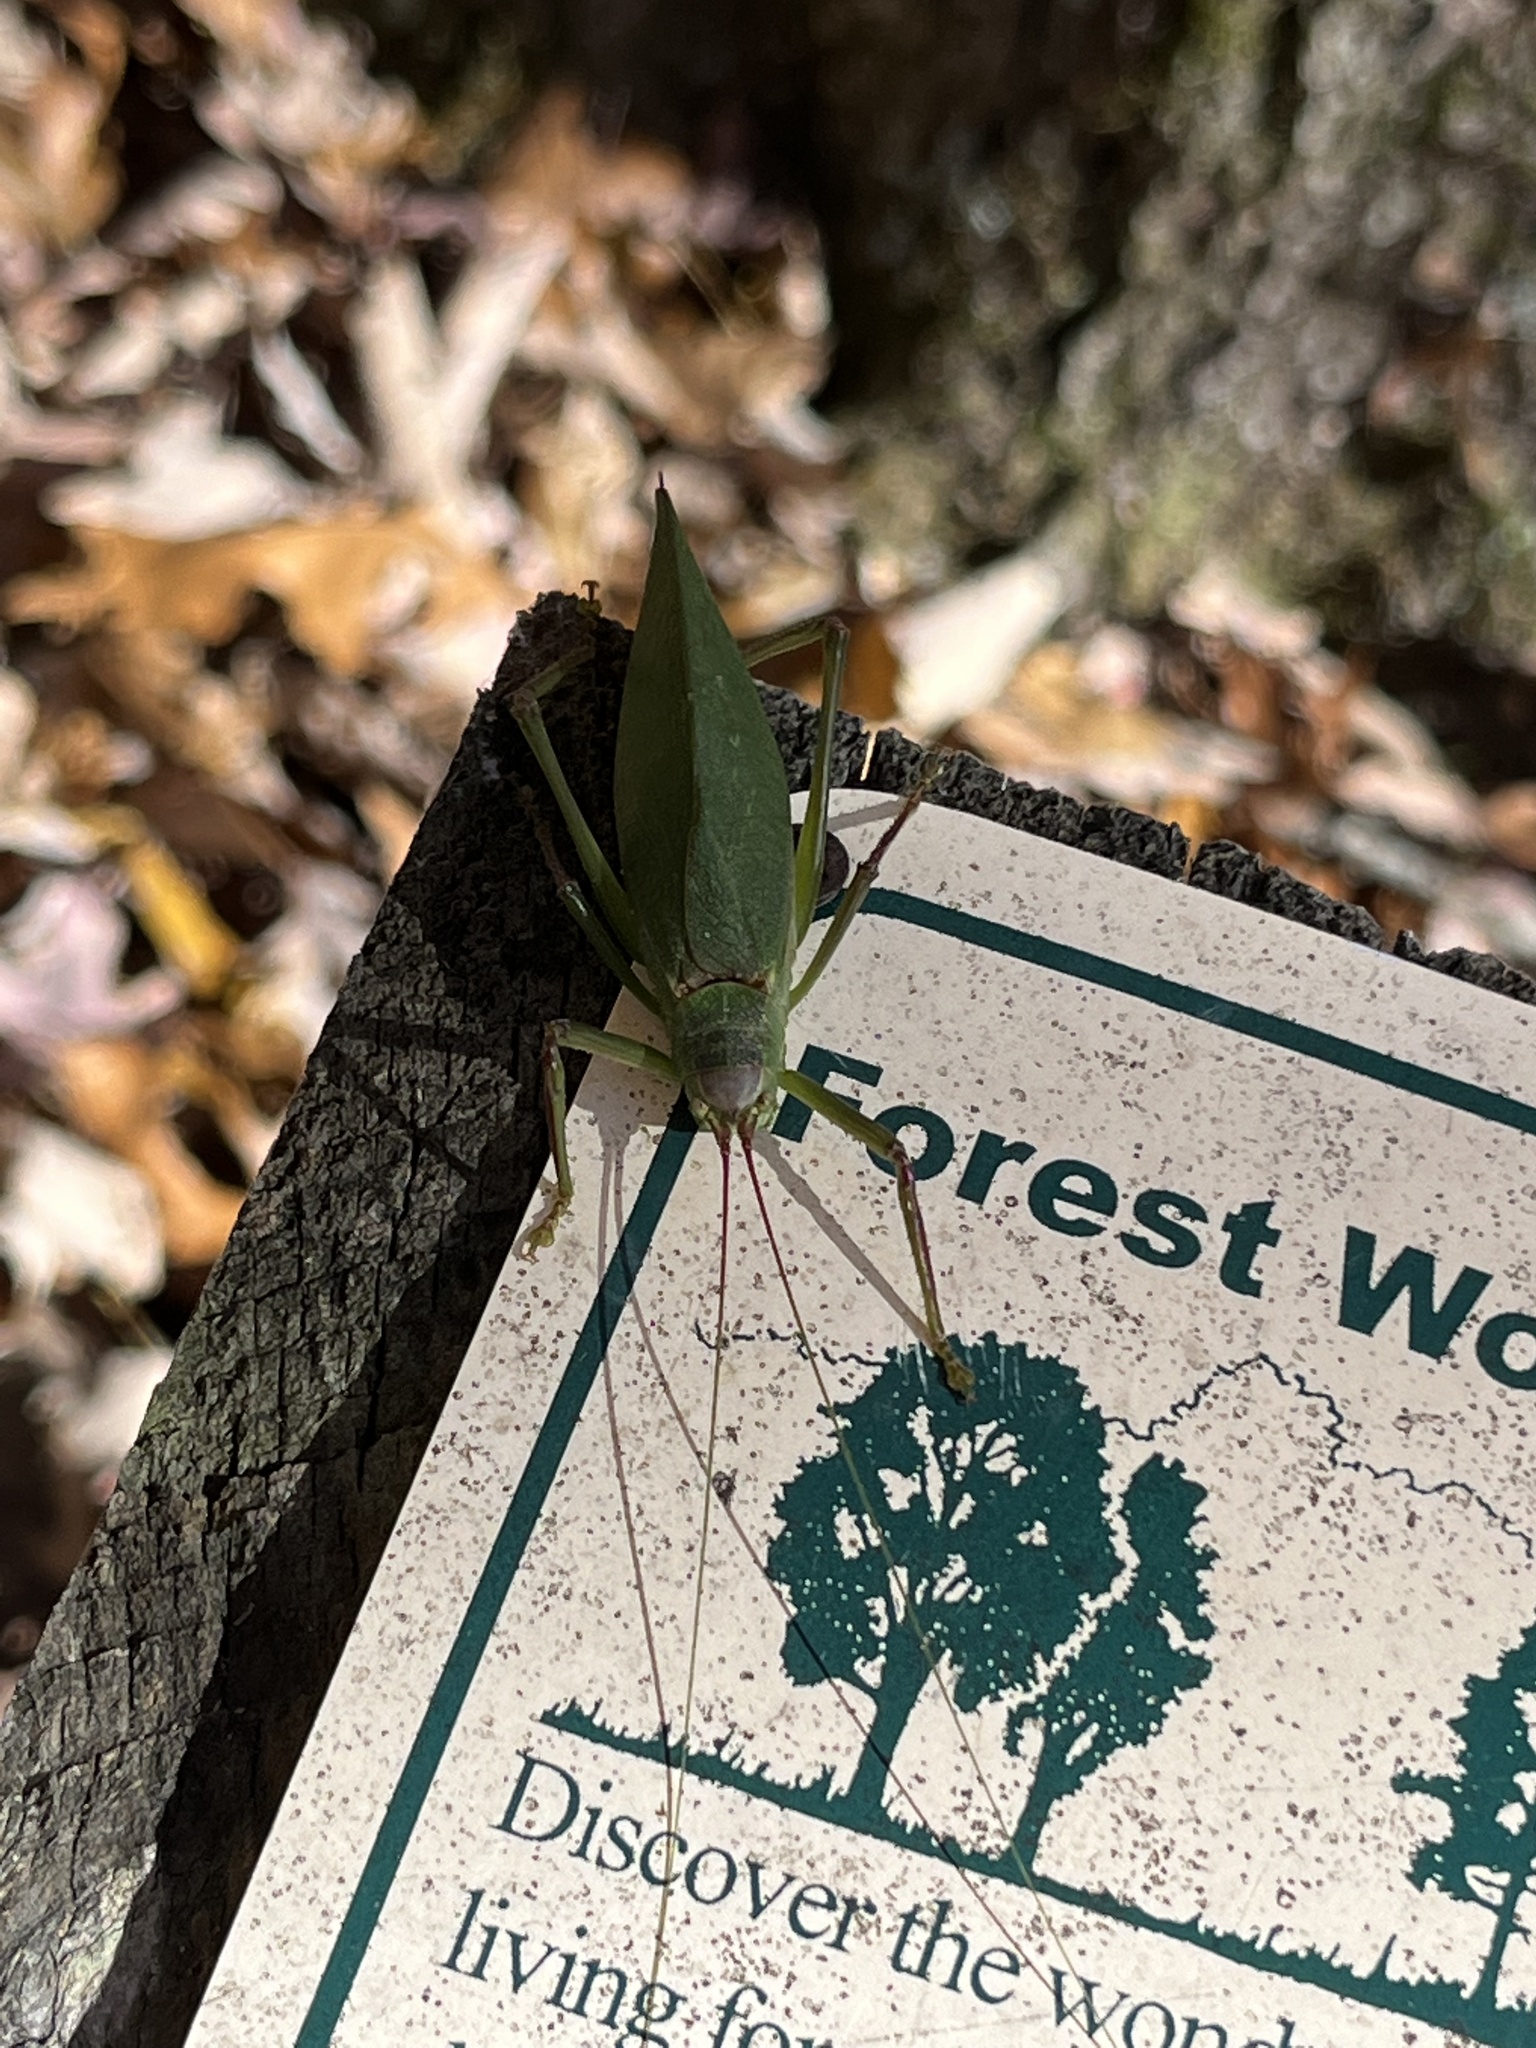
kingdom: Animalia
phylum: Arthropoda
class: Insecta
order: Orthoptera
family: Tettigoniidae
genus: Pterophylla
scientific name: Pterophylla camellifolia
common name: Common true katydid
